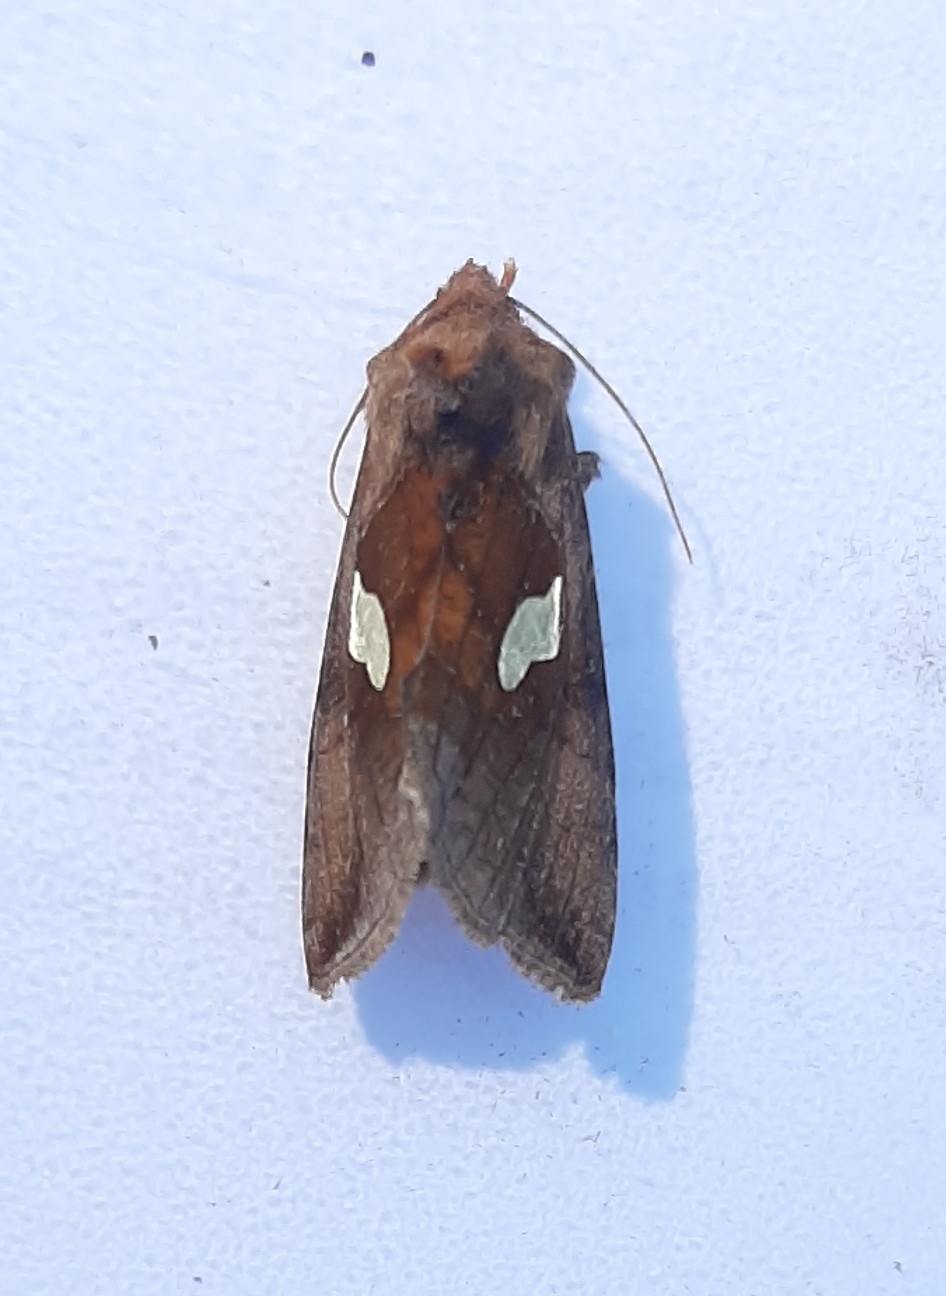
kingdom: Animalia
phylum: Arthropoda
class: Insecta
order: Lepidoptera
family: Noctuidae
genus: Autographa
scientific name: Autographa bractea
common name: Gold spangle
